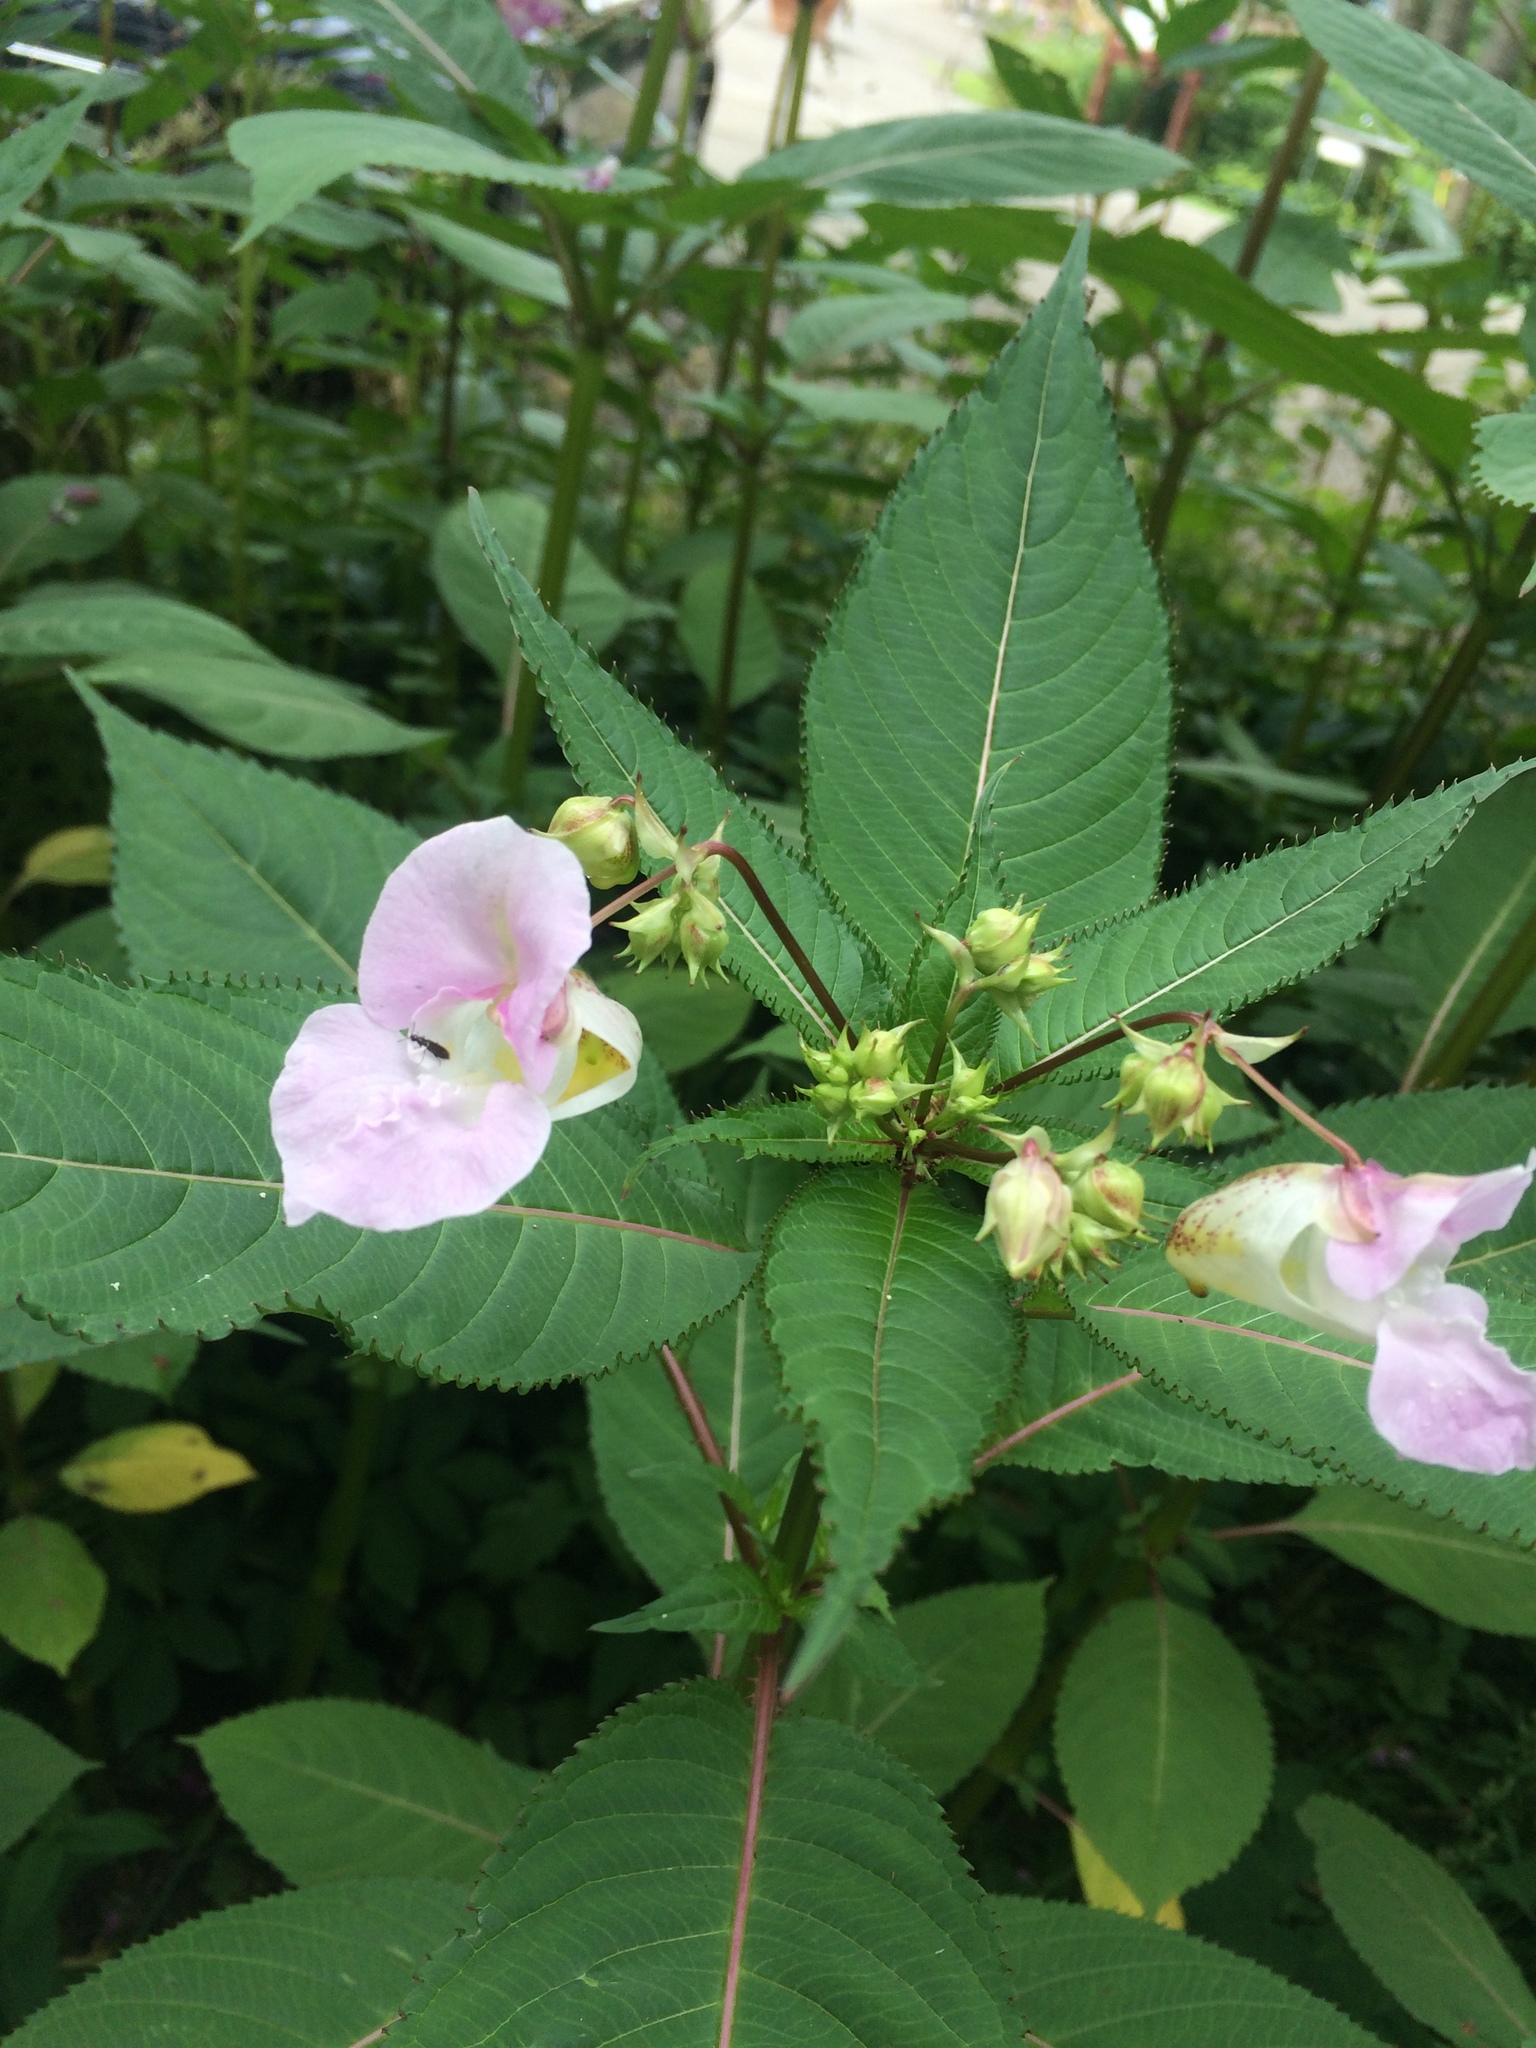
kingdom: Plantae
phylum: Tracheophyta
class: Magnoliopsida
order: Ericales
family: Balsaminaceae
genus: Impatiens
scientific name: Impatiens glandulifera
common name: Himalayan balsam
